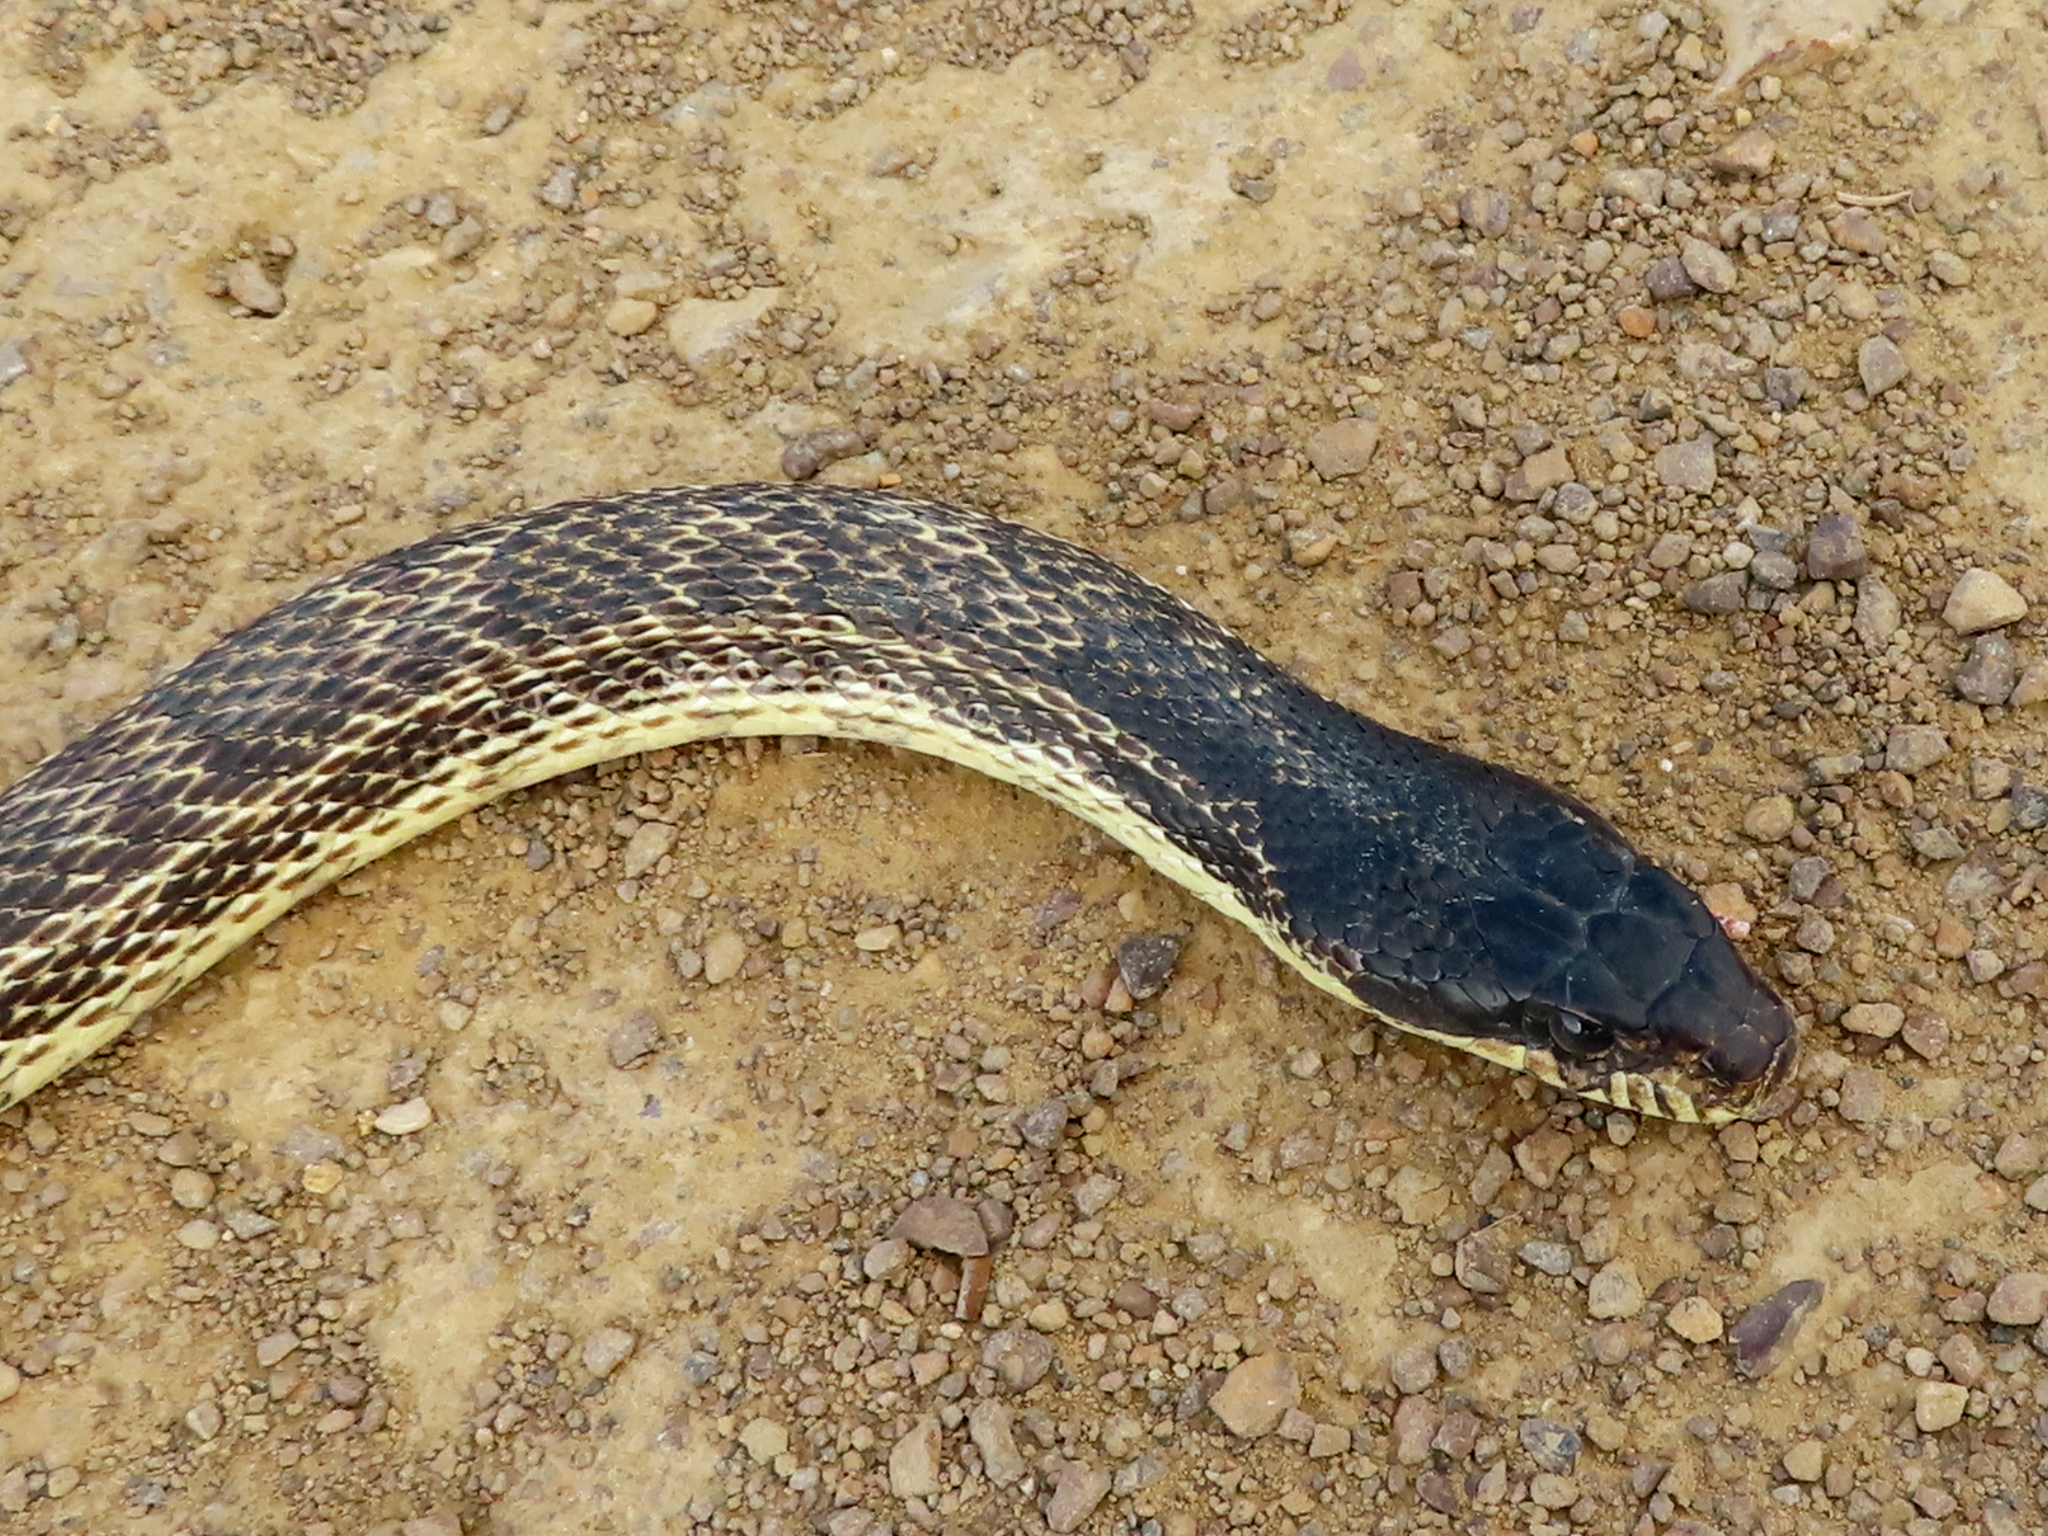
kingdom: Animalia
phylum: Chordata
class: Squamata
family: Colubridae
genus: Elaphe
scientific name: Elaphe sauromates
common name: Eastern four-lined ratsnake
